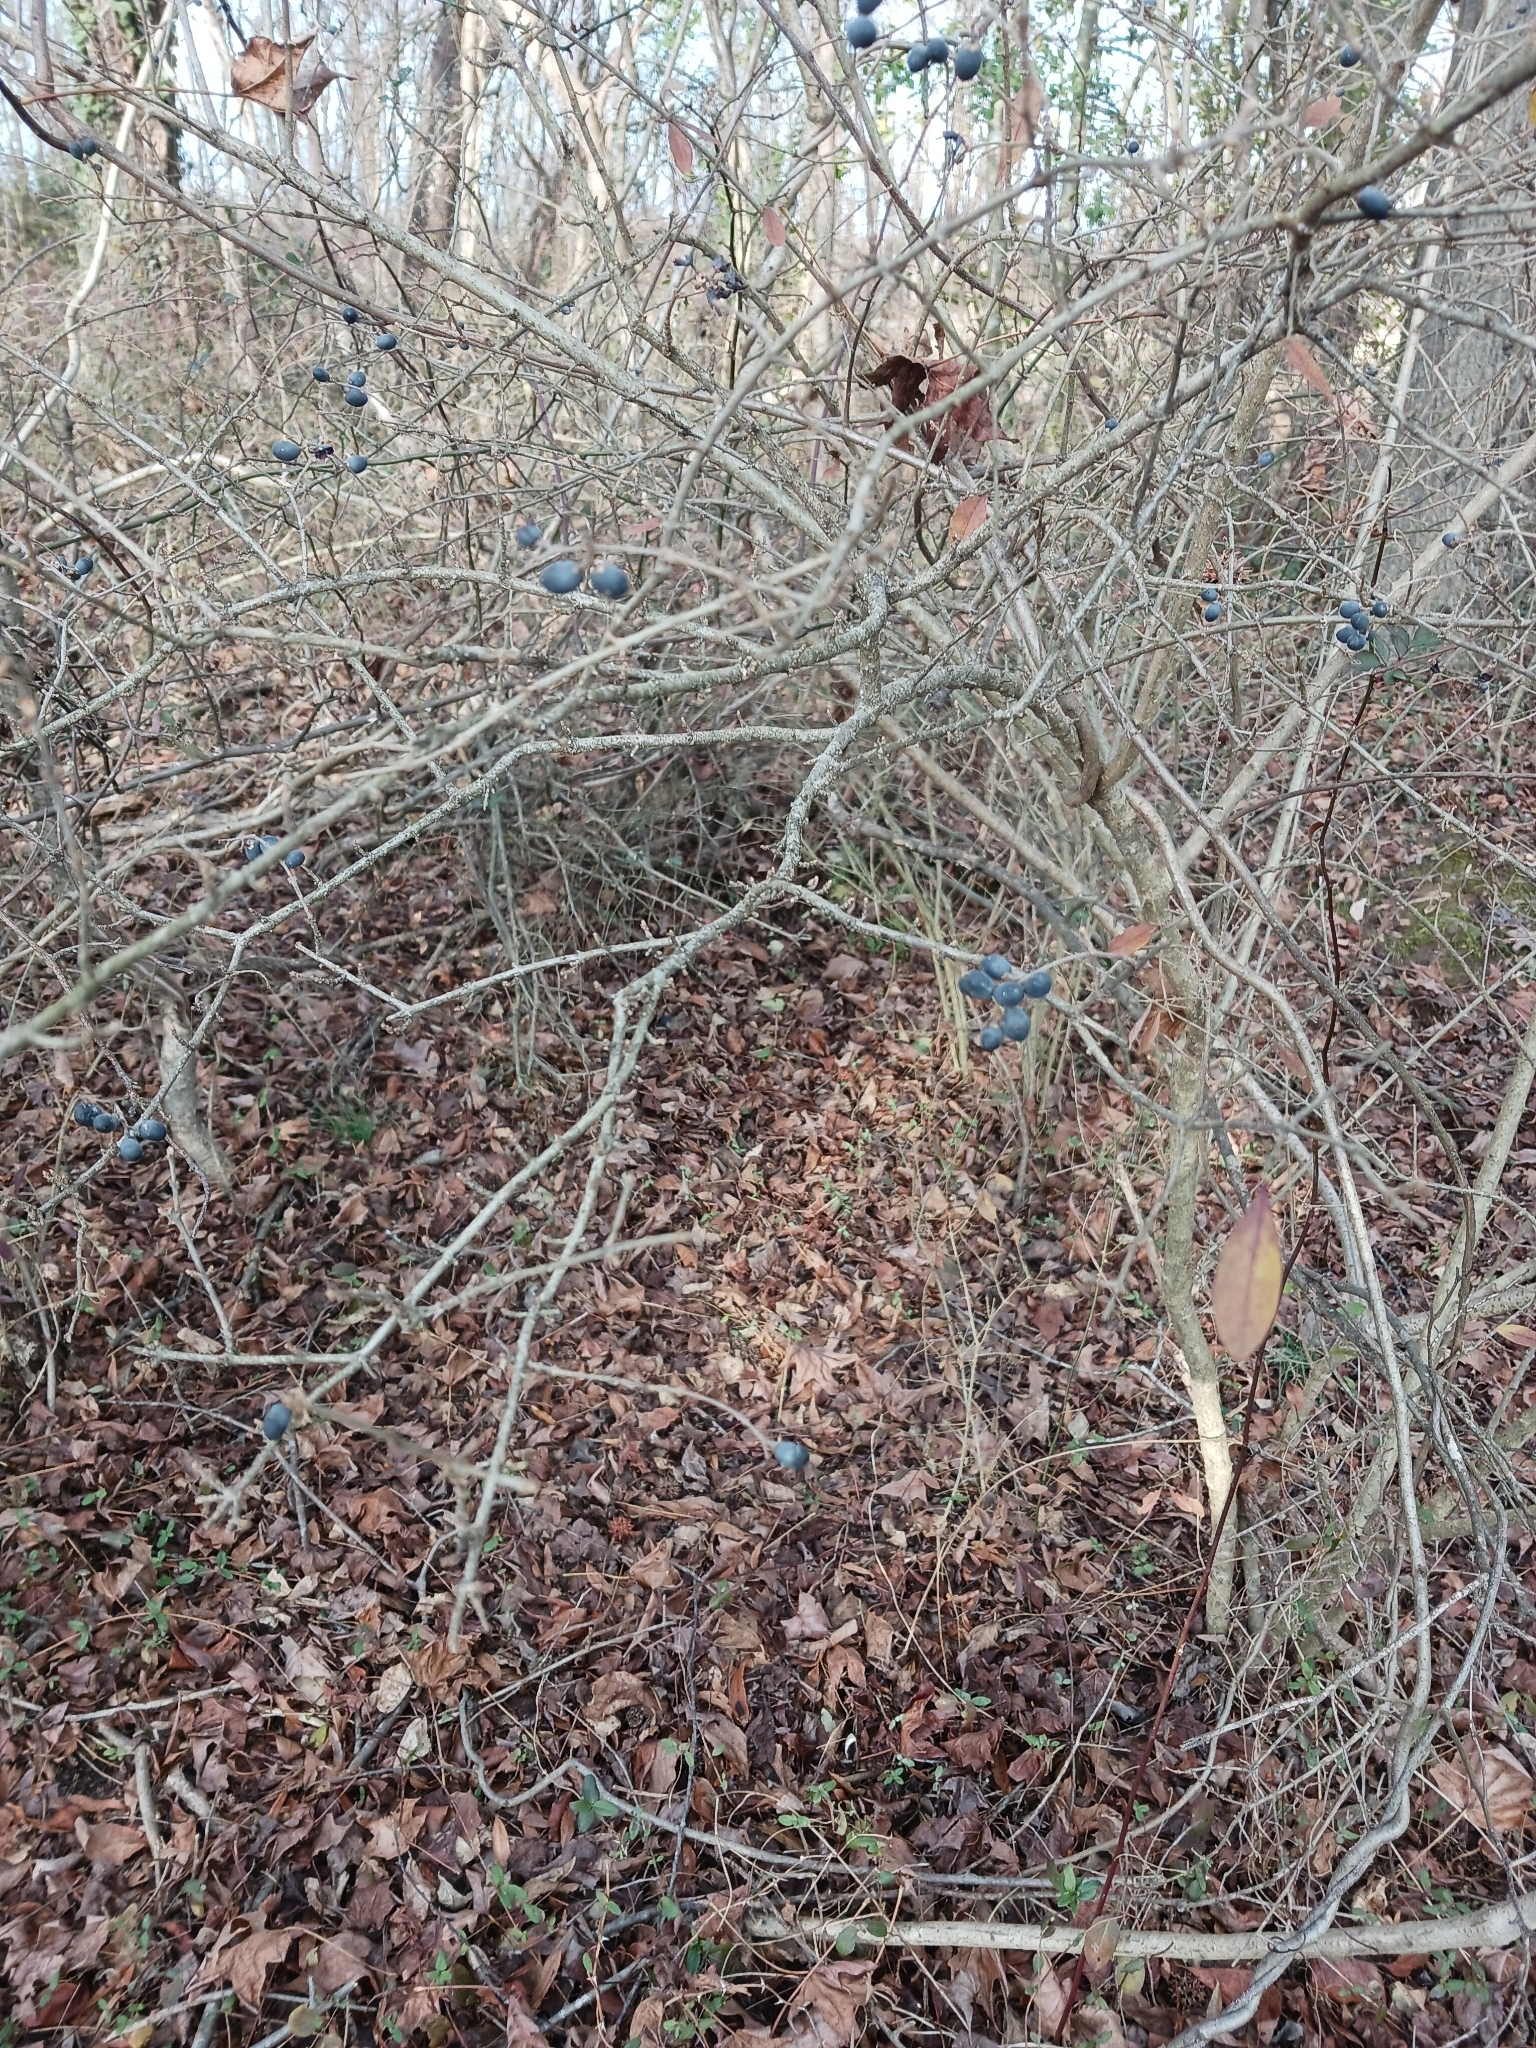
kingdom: Plantae
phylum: Tracheophyta
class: Magnoliopsida
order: Lamiales
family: Oleaceae
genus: Ligustrum
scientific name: Ligustrum sinense
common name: Chinese privet
